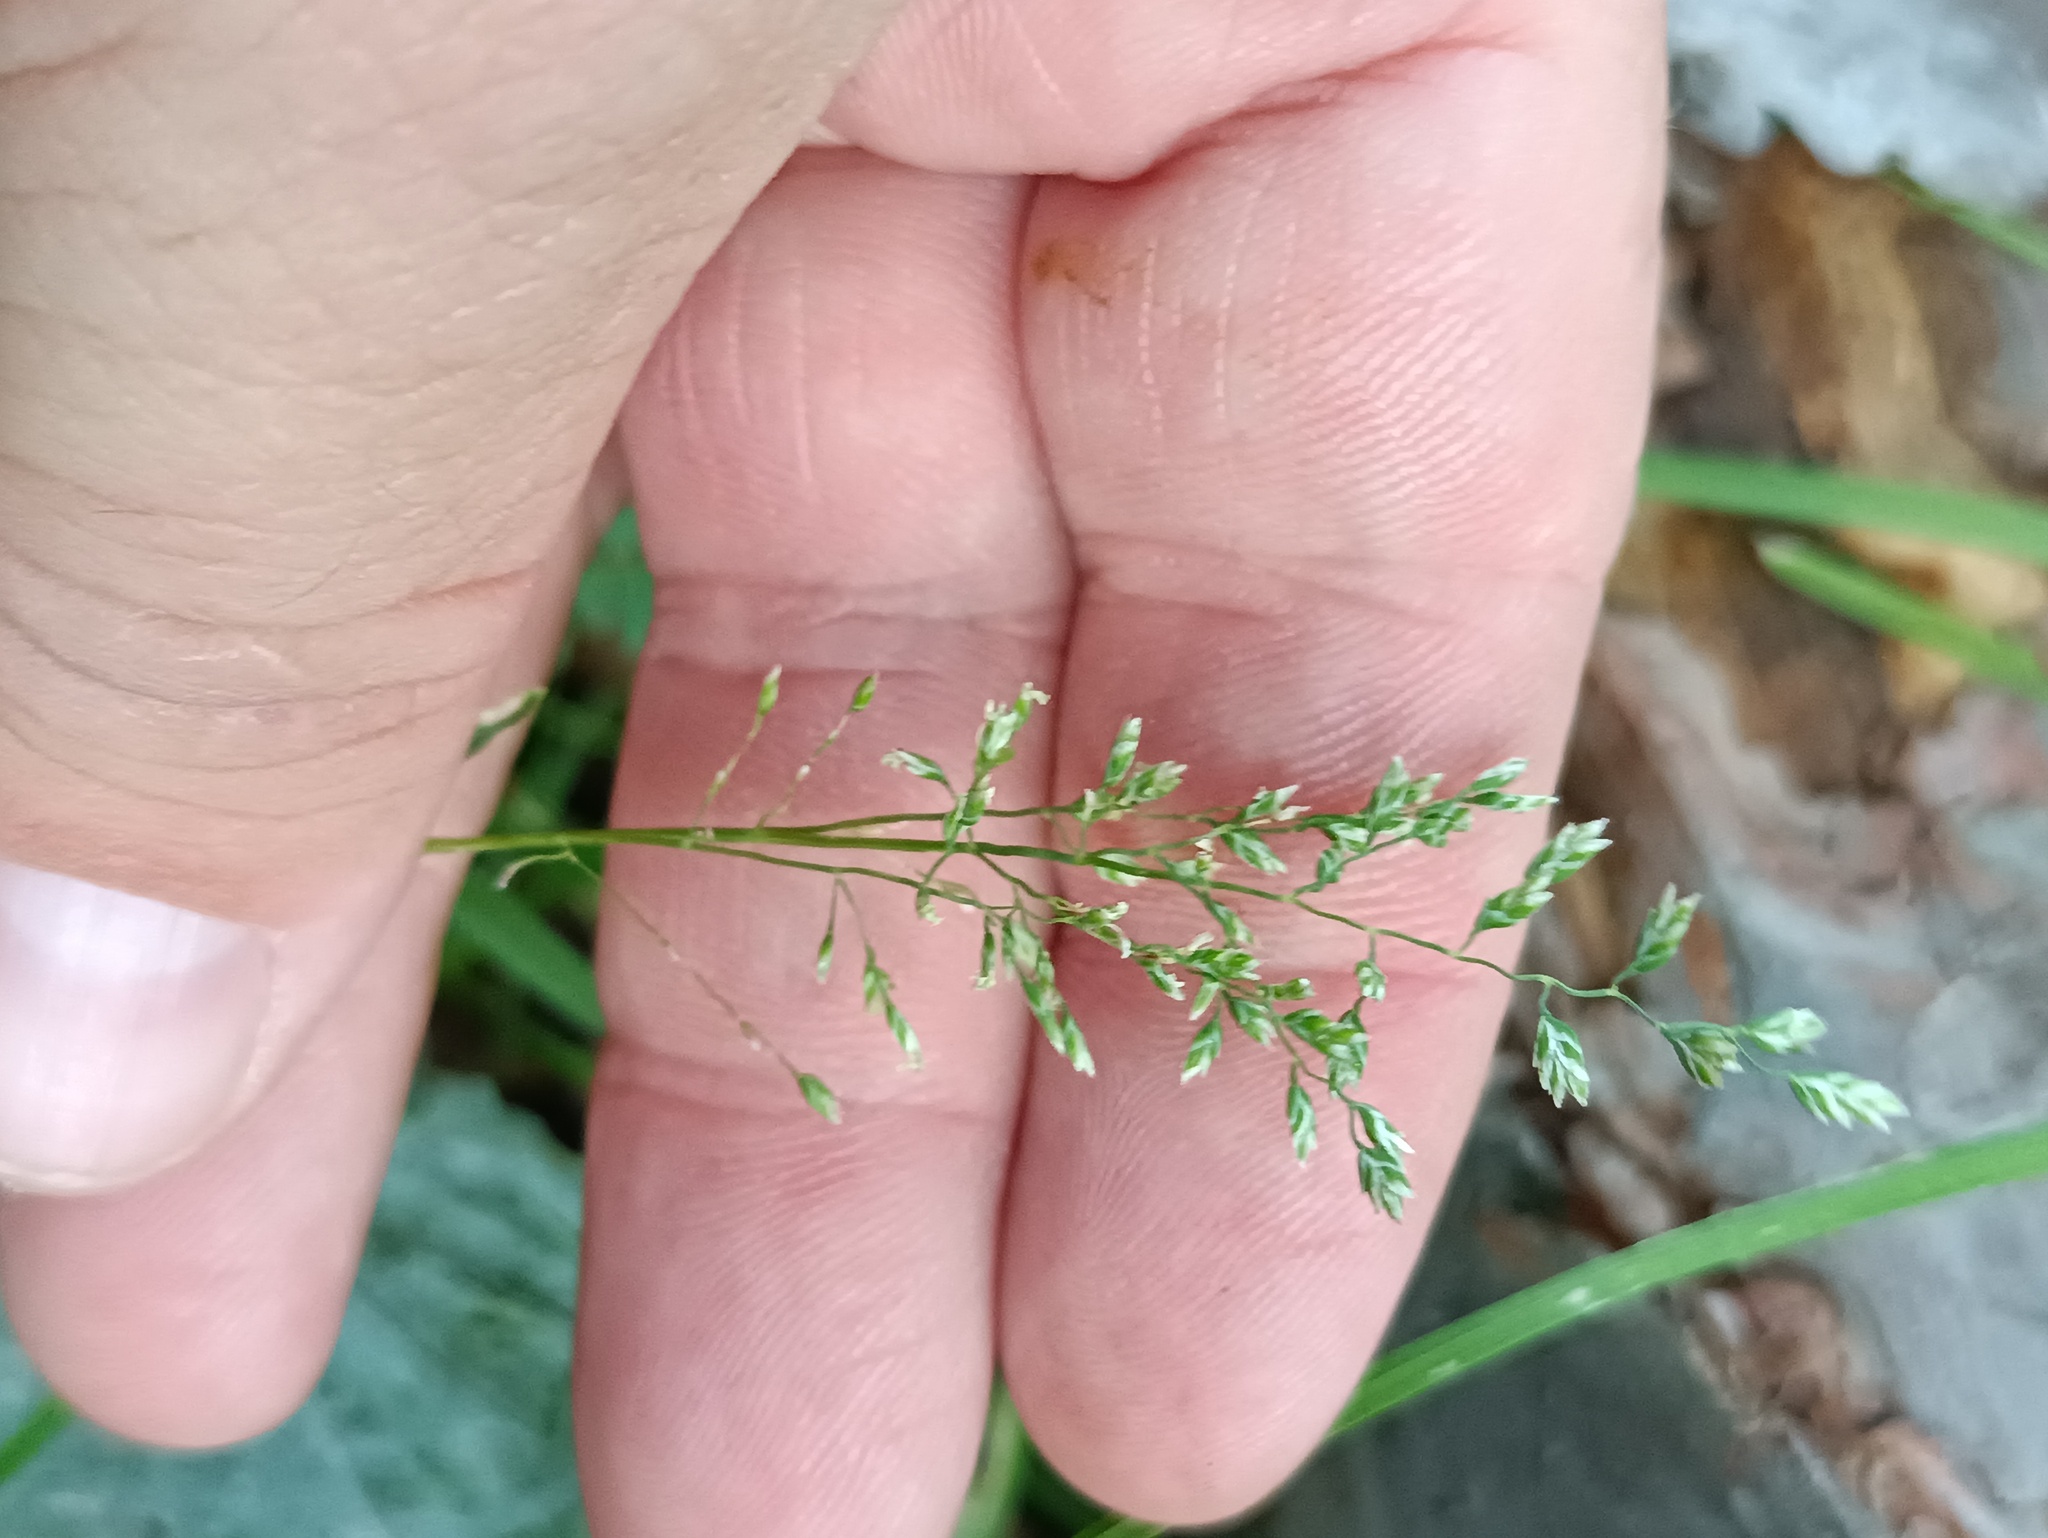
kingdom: Plantae
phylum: Tracheophyta
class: Liliopsida
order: Poales
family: Poaceae
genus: Poa
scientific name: Poa annua
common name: Annual bluegrass
